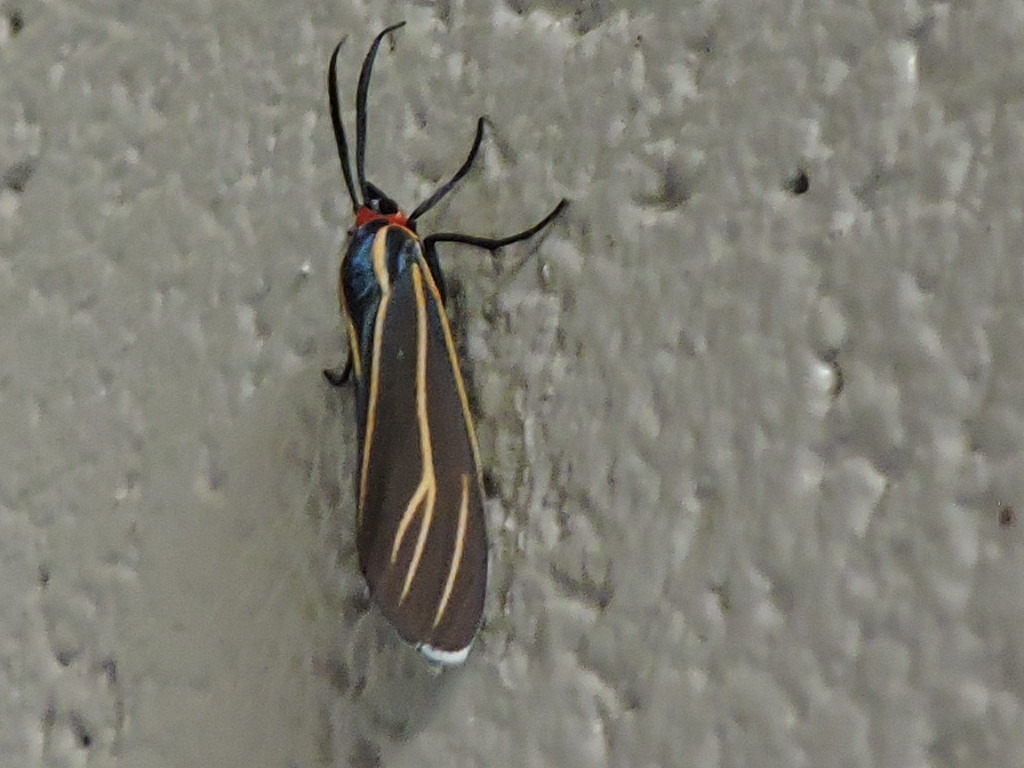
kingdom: Animalia
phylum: Chordata
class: Squamata
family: Viperidae
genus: Crotalus
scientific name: Crotalus lepidus
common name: Rock rattlesnake
